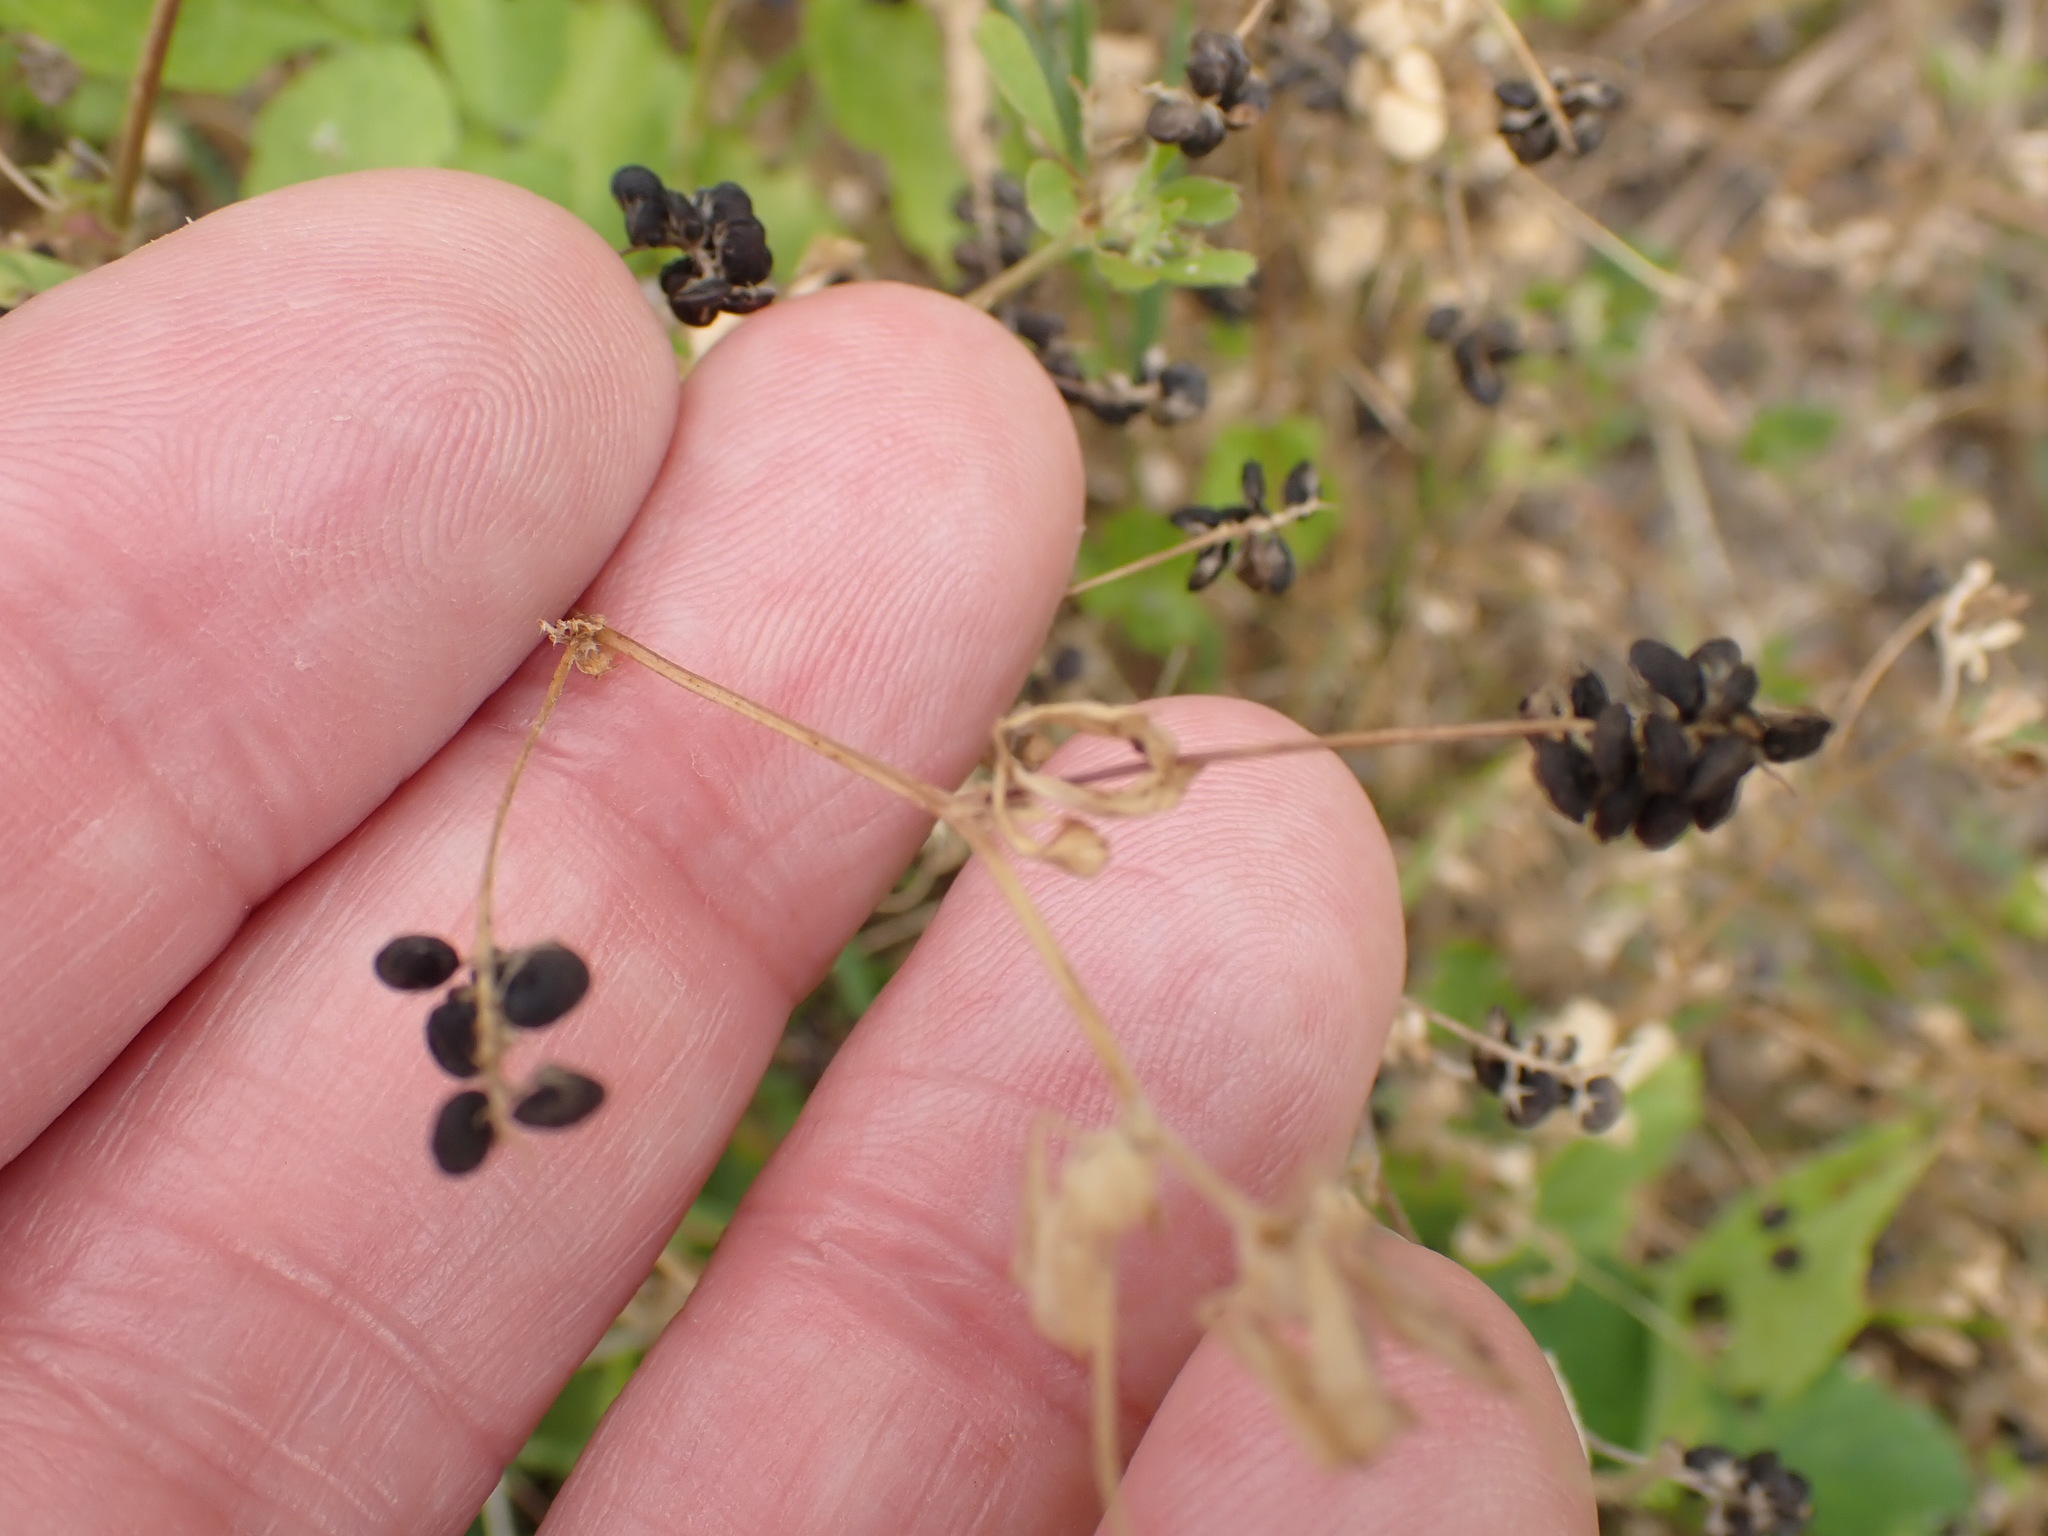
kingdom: Plantae
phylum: Tracheophyta
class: Magnoliopsida
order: Fabales
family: Fabaceae
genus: Medicago
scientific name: Medicago lupulina
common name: Black medick
